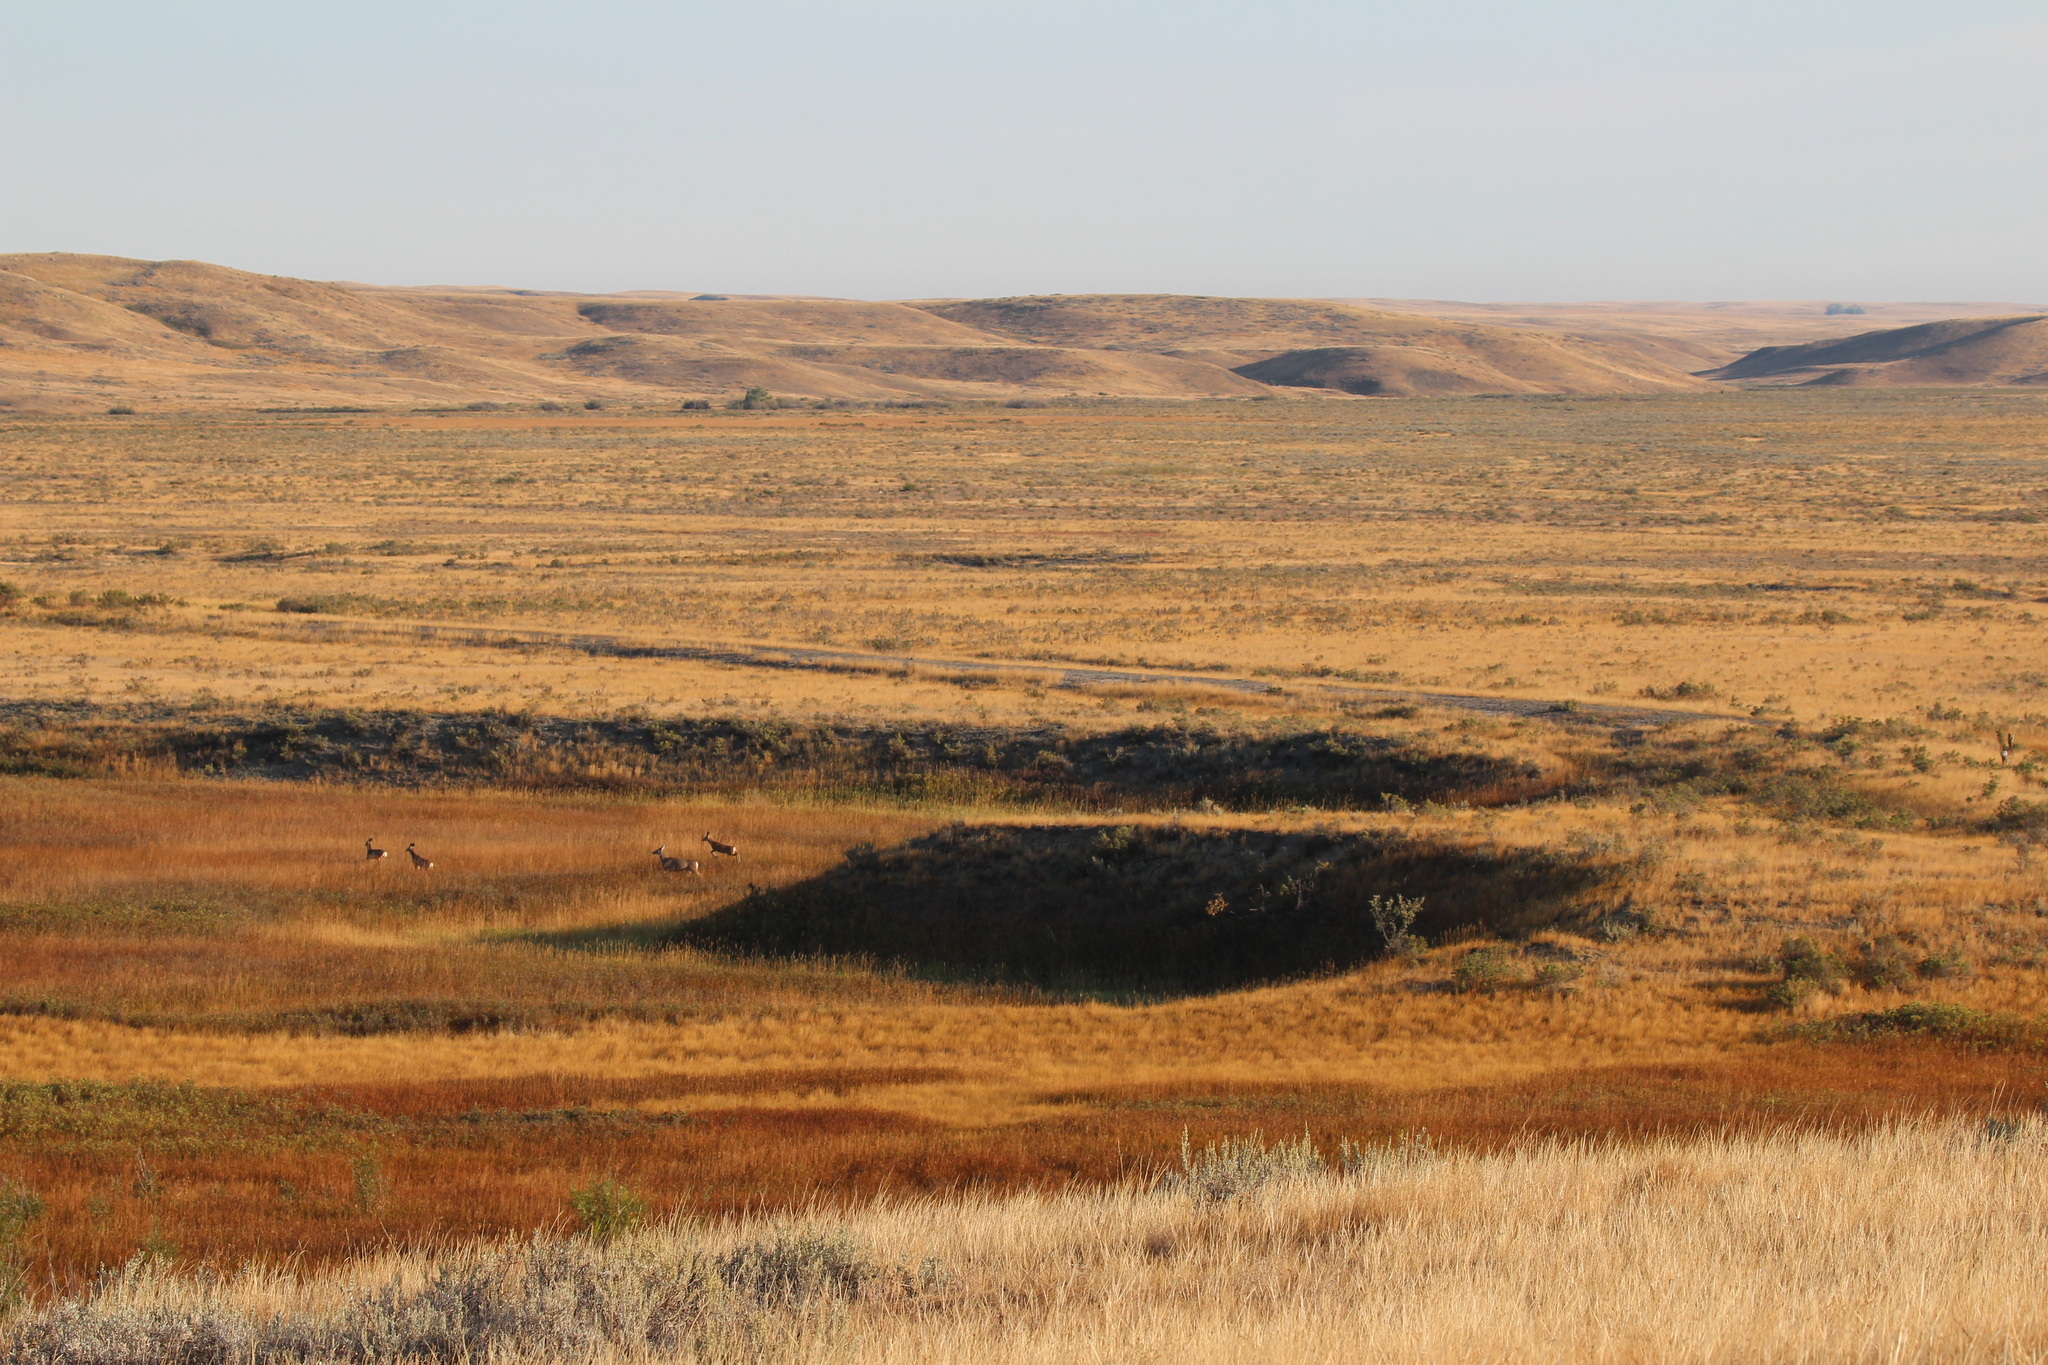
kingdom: Animalia
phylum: Chordata
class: Mammalia
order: Artiodactyla
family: Cervidae
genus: Odocoileus
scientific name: Odocoileus hemionus
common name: Mule deer
